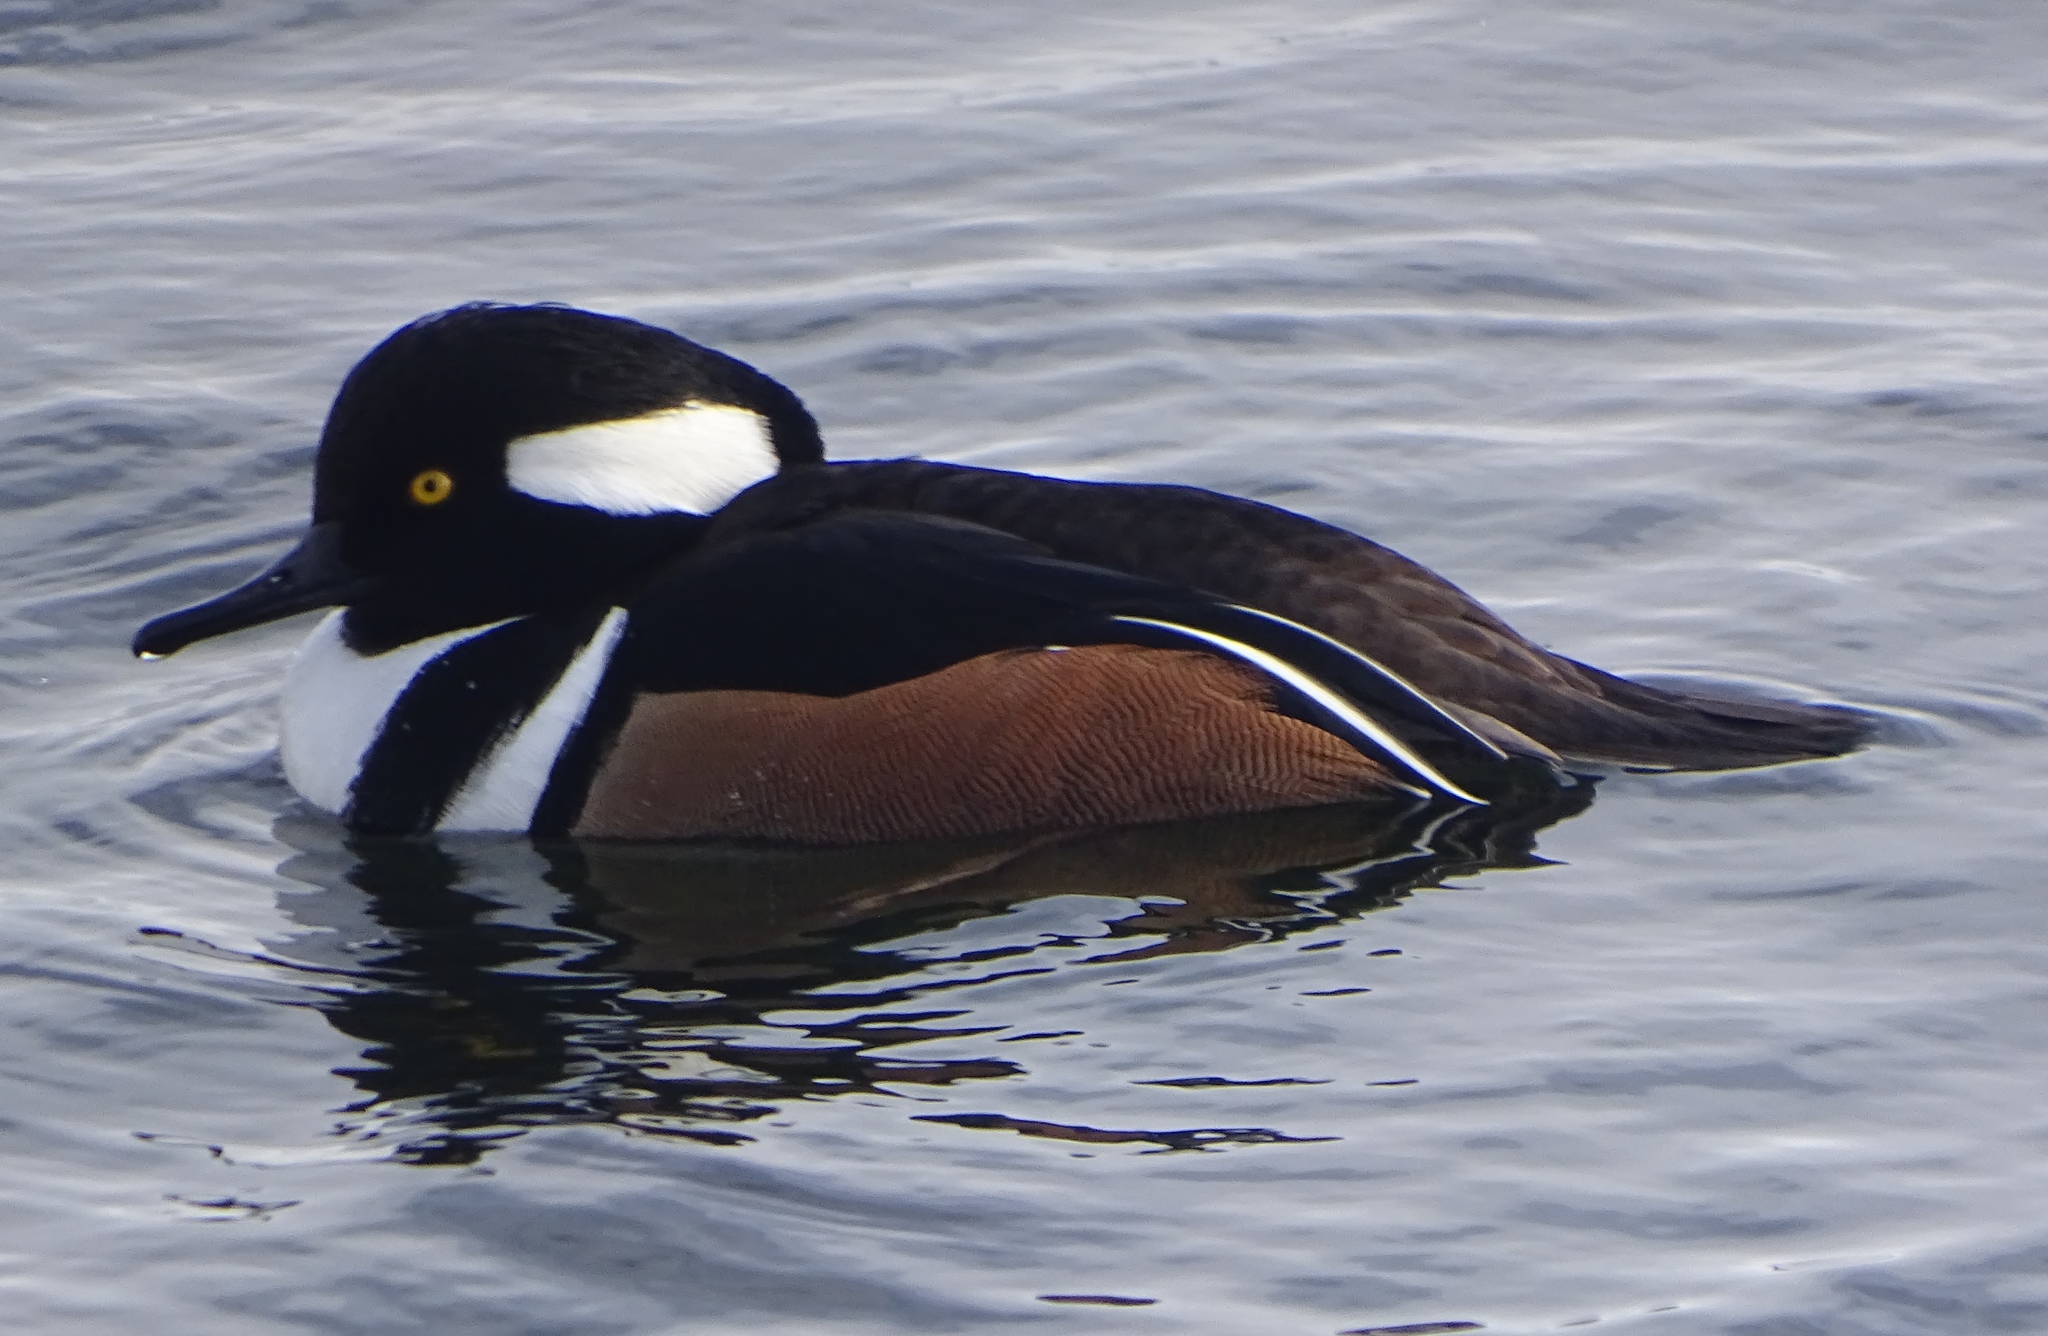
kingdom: Animalia
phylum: Chordata
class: Aves
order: Anseriformes
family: Anatidae
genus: Lophodytes
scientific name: Lophodytes cucullatus
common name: Hooded merganser
